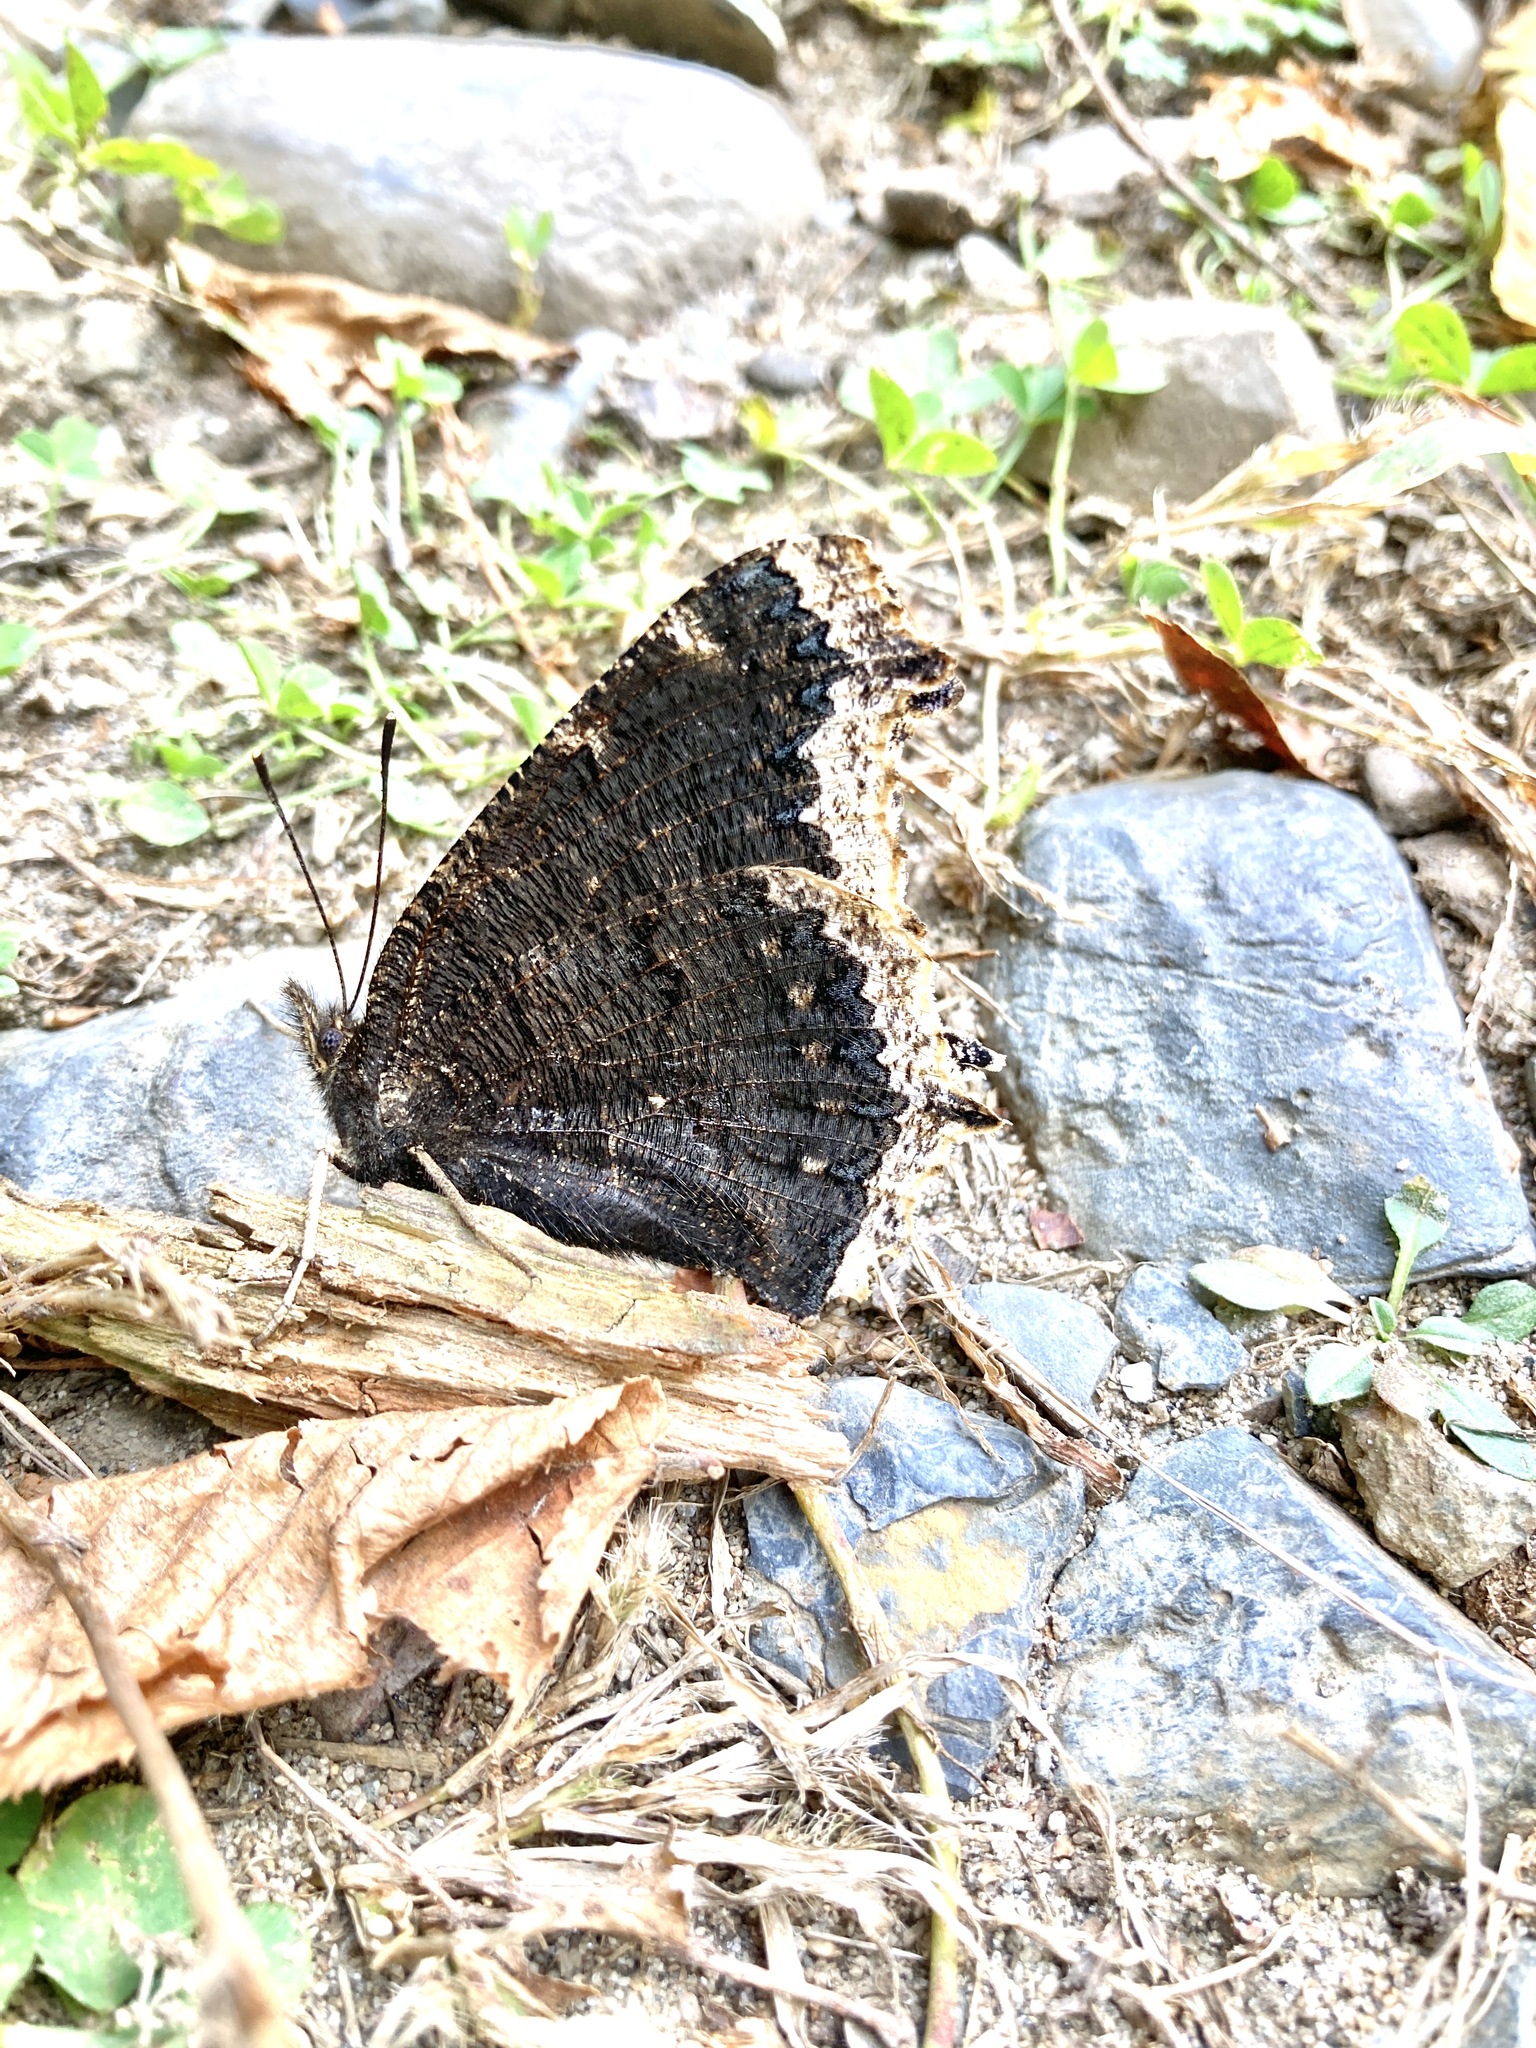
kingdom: Animalia
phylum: Arthropoda
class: Insecta
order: Lepidoptera
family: Nymphalidae
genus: Nymphalis
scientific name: Nymphalis antiopa
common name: Camberwell beauty
